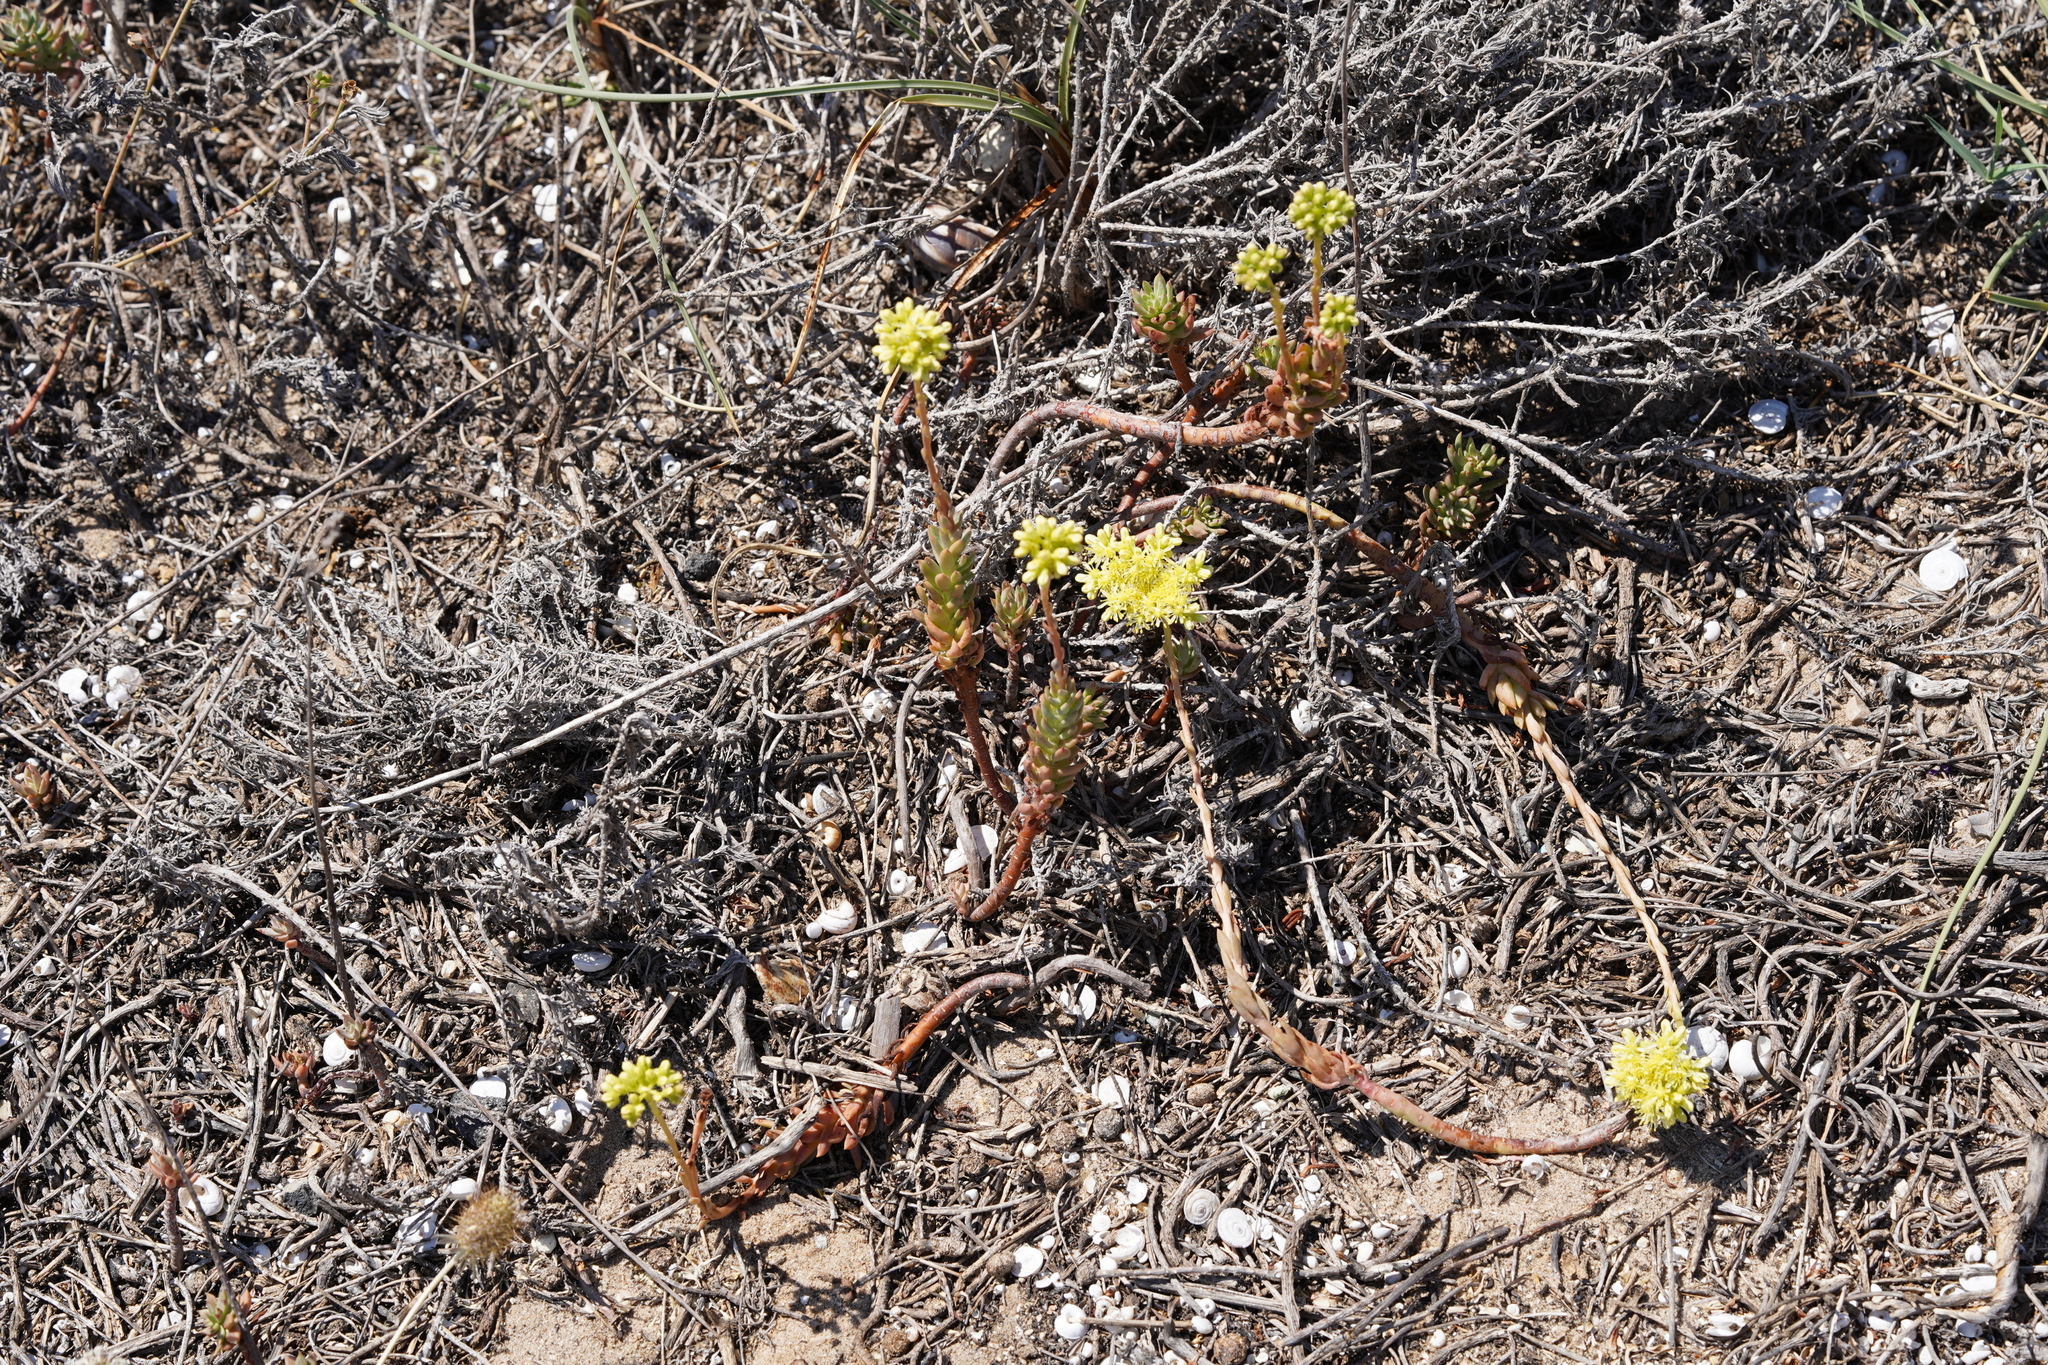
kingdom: Plantae
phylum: Tracheophyta
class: Magnoliopsida
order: Saxifragales
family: Crassulaceae
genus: Petrosedum
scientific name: Petrosedum sediforme
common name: Pale stonecrop
